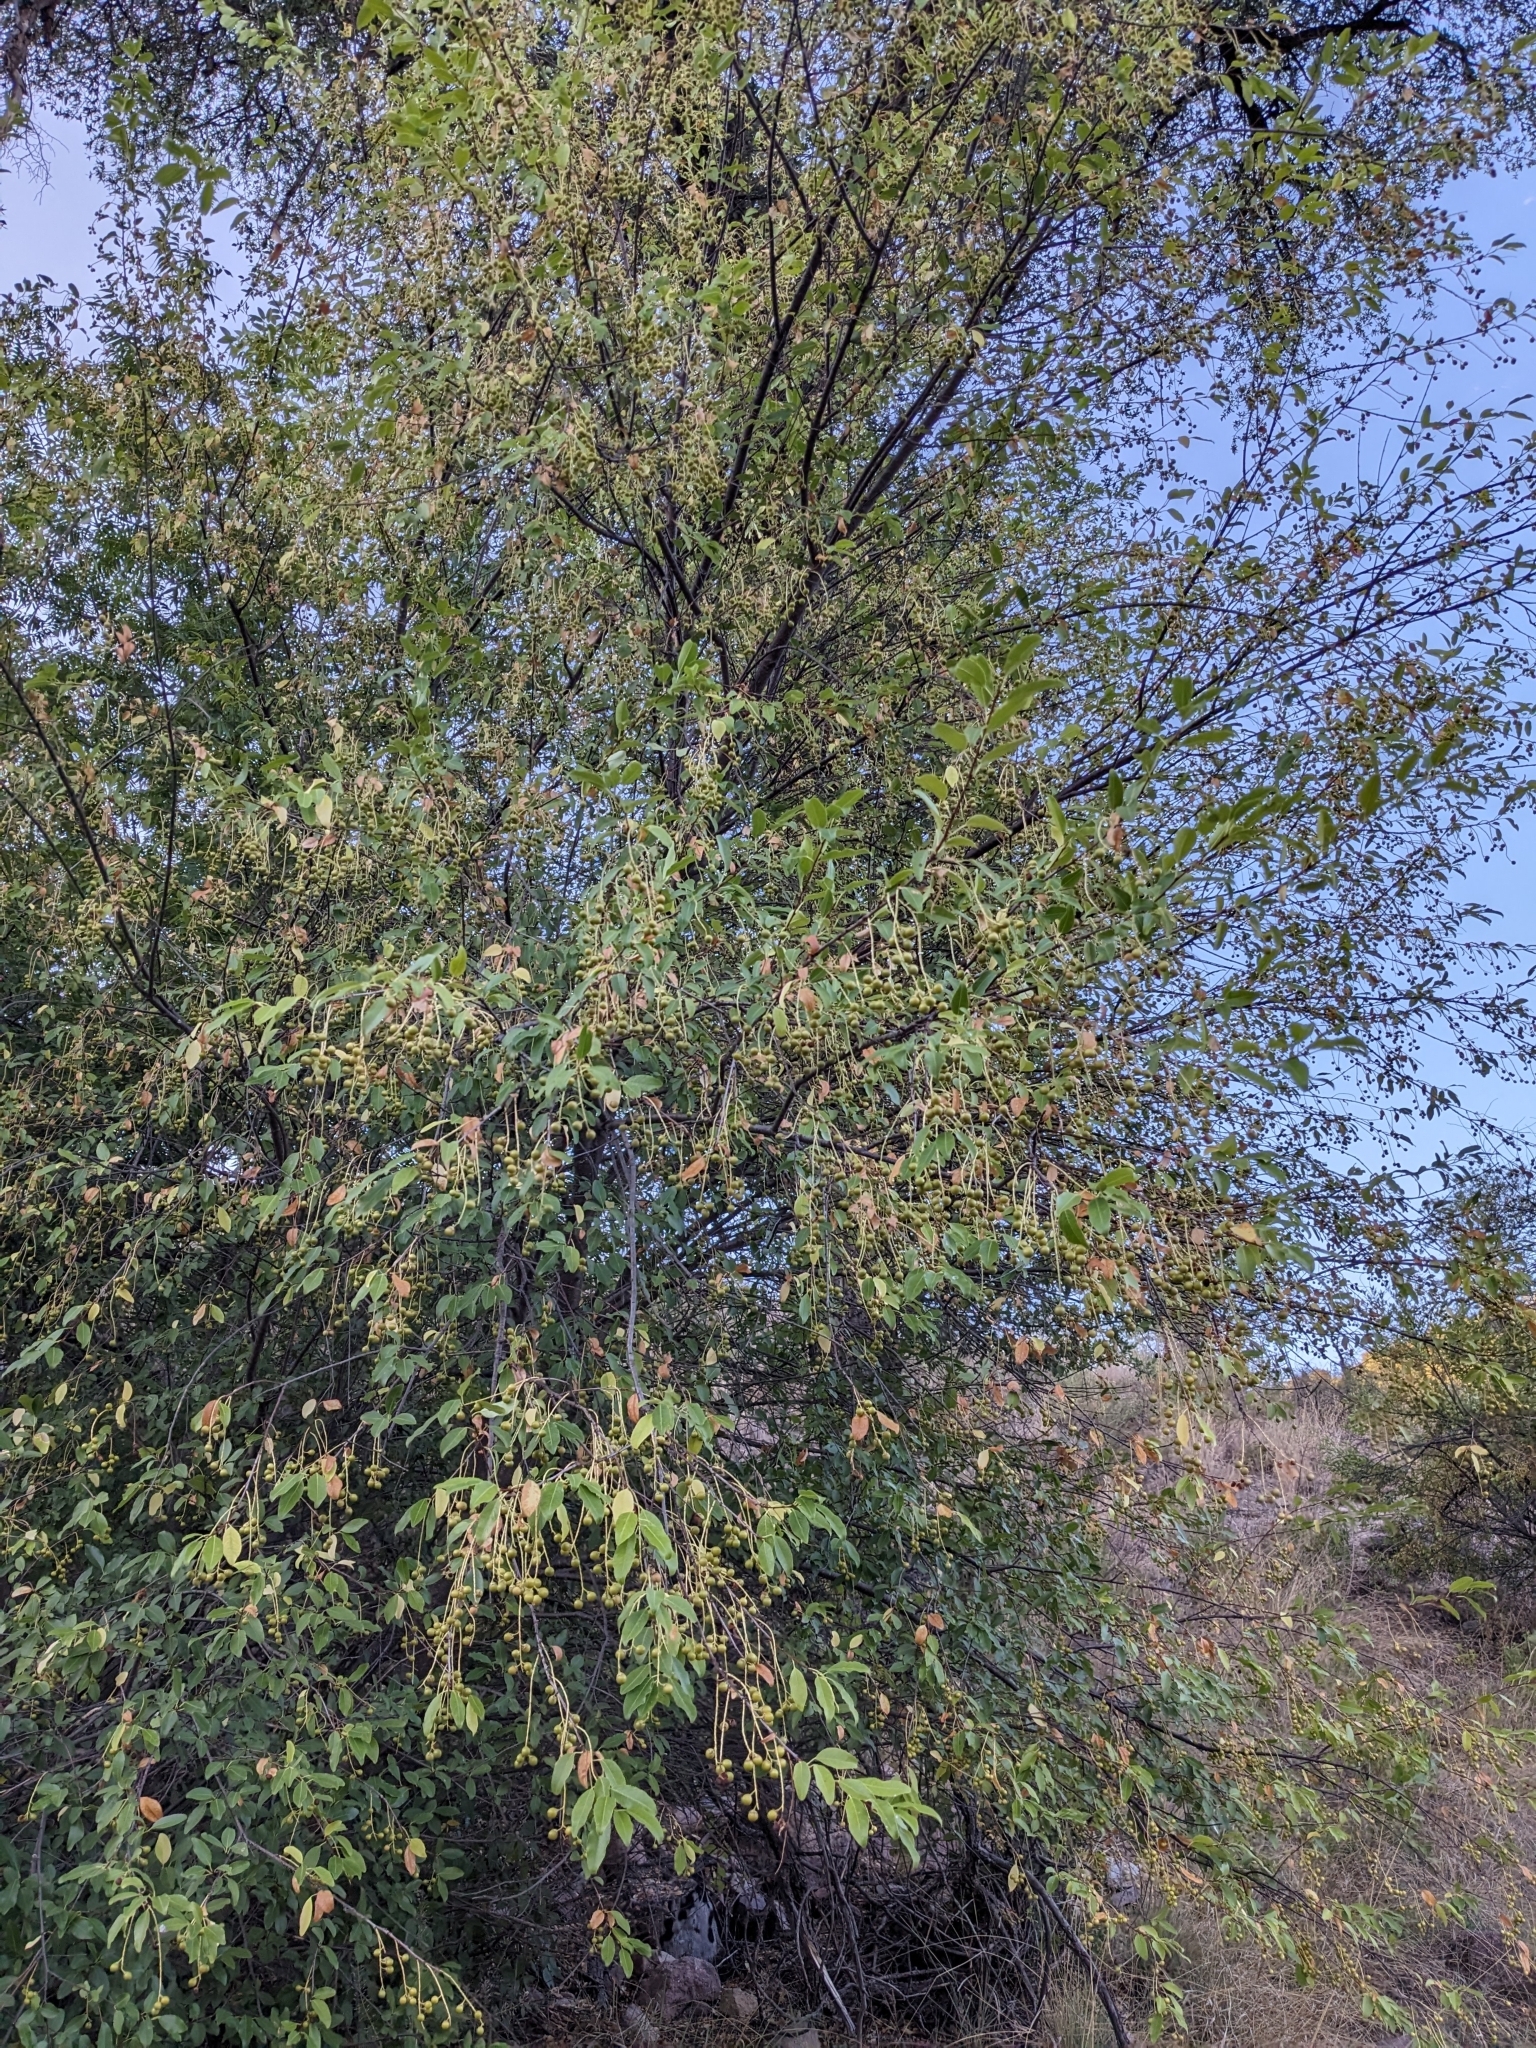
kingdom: Plantae
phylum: Tracheophyta
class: Magnoliopsida
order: Rosales
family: Rosaceae
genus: Prunus
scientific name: Prunus serotina
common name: Black cherry
